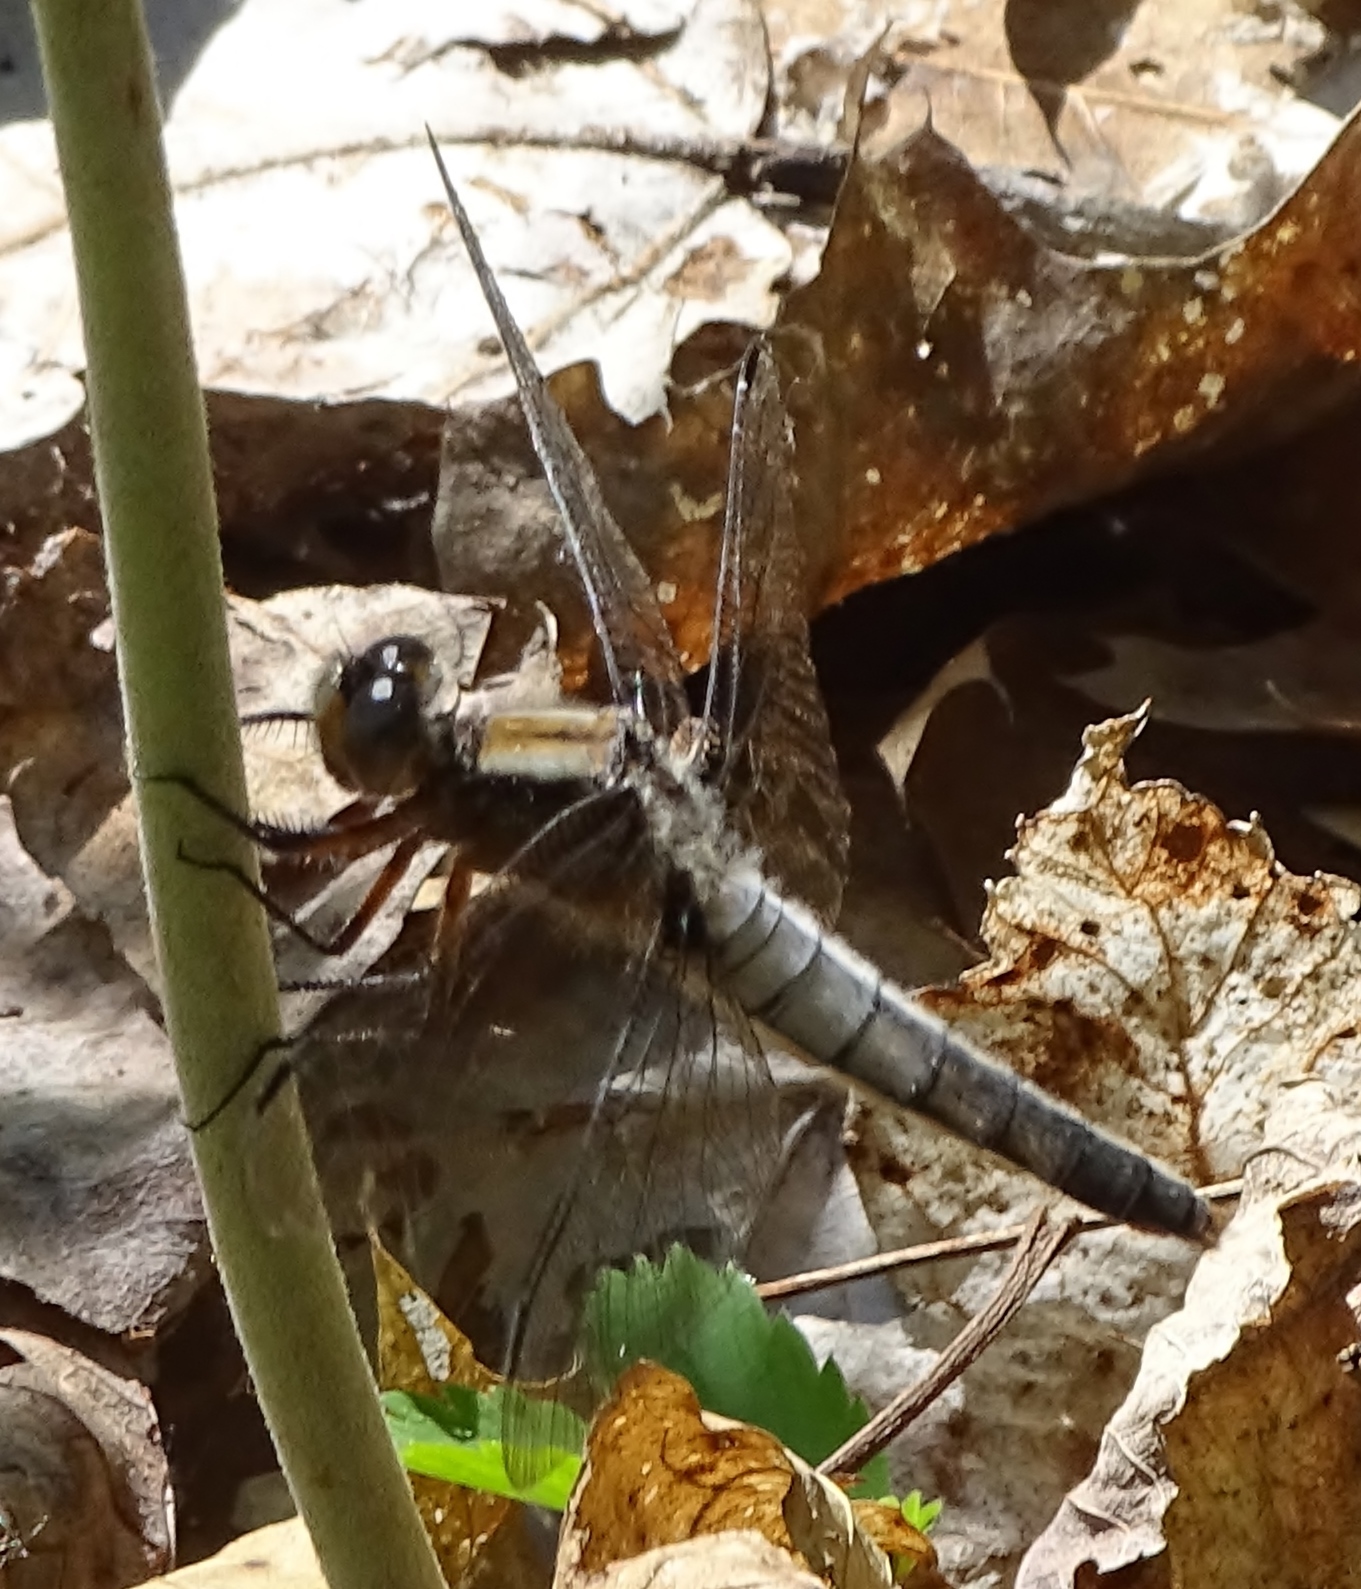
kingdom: Animalia
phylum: Arthropoda
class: Insecta
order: Odonata
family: Libellulidae
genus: Ladona
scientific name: Ladona julia
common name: Chalk-fronted corporal
